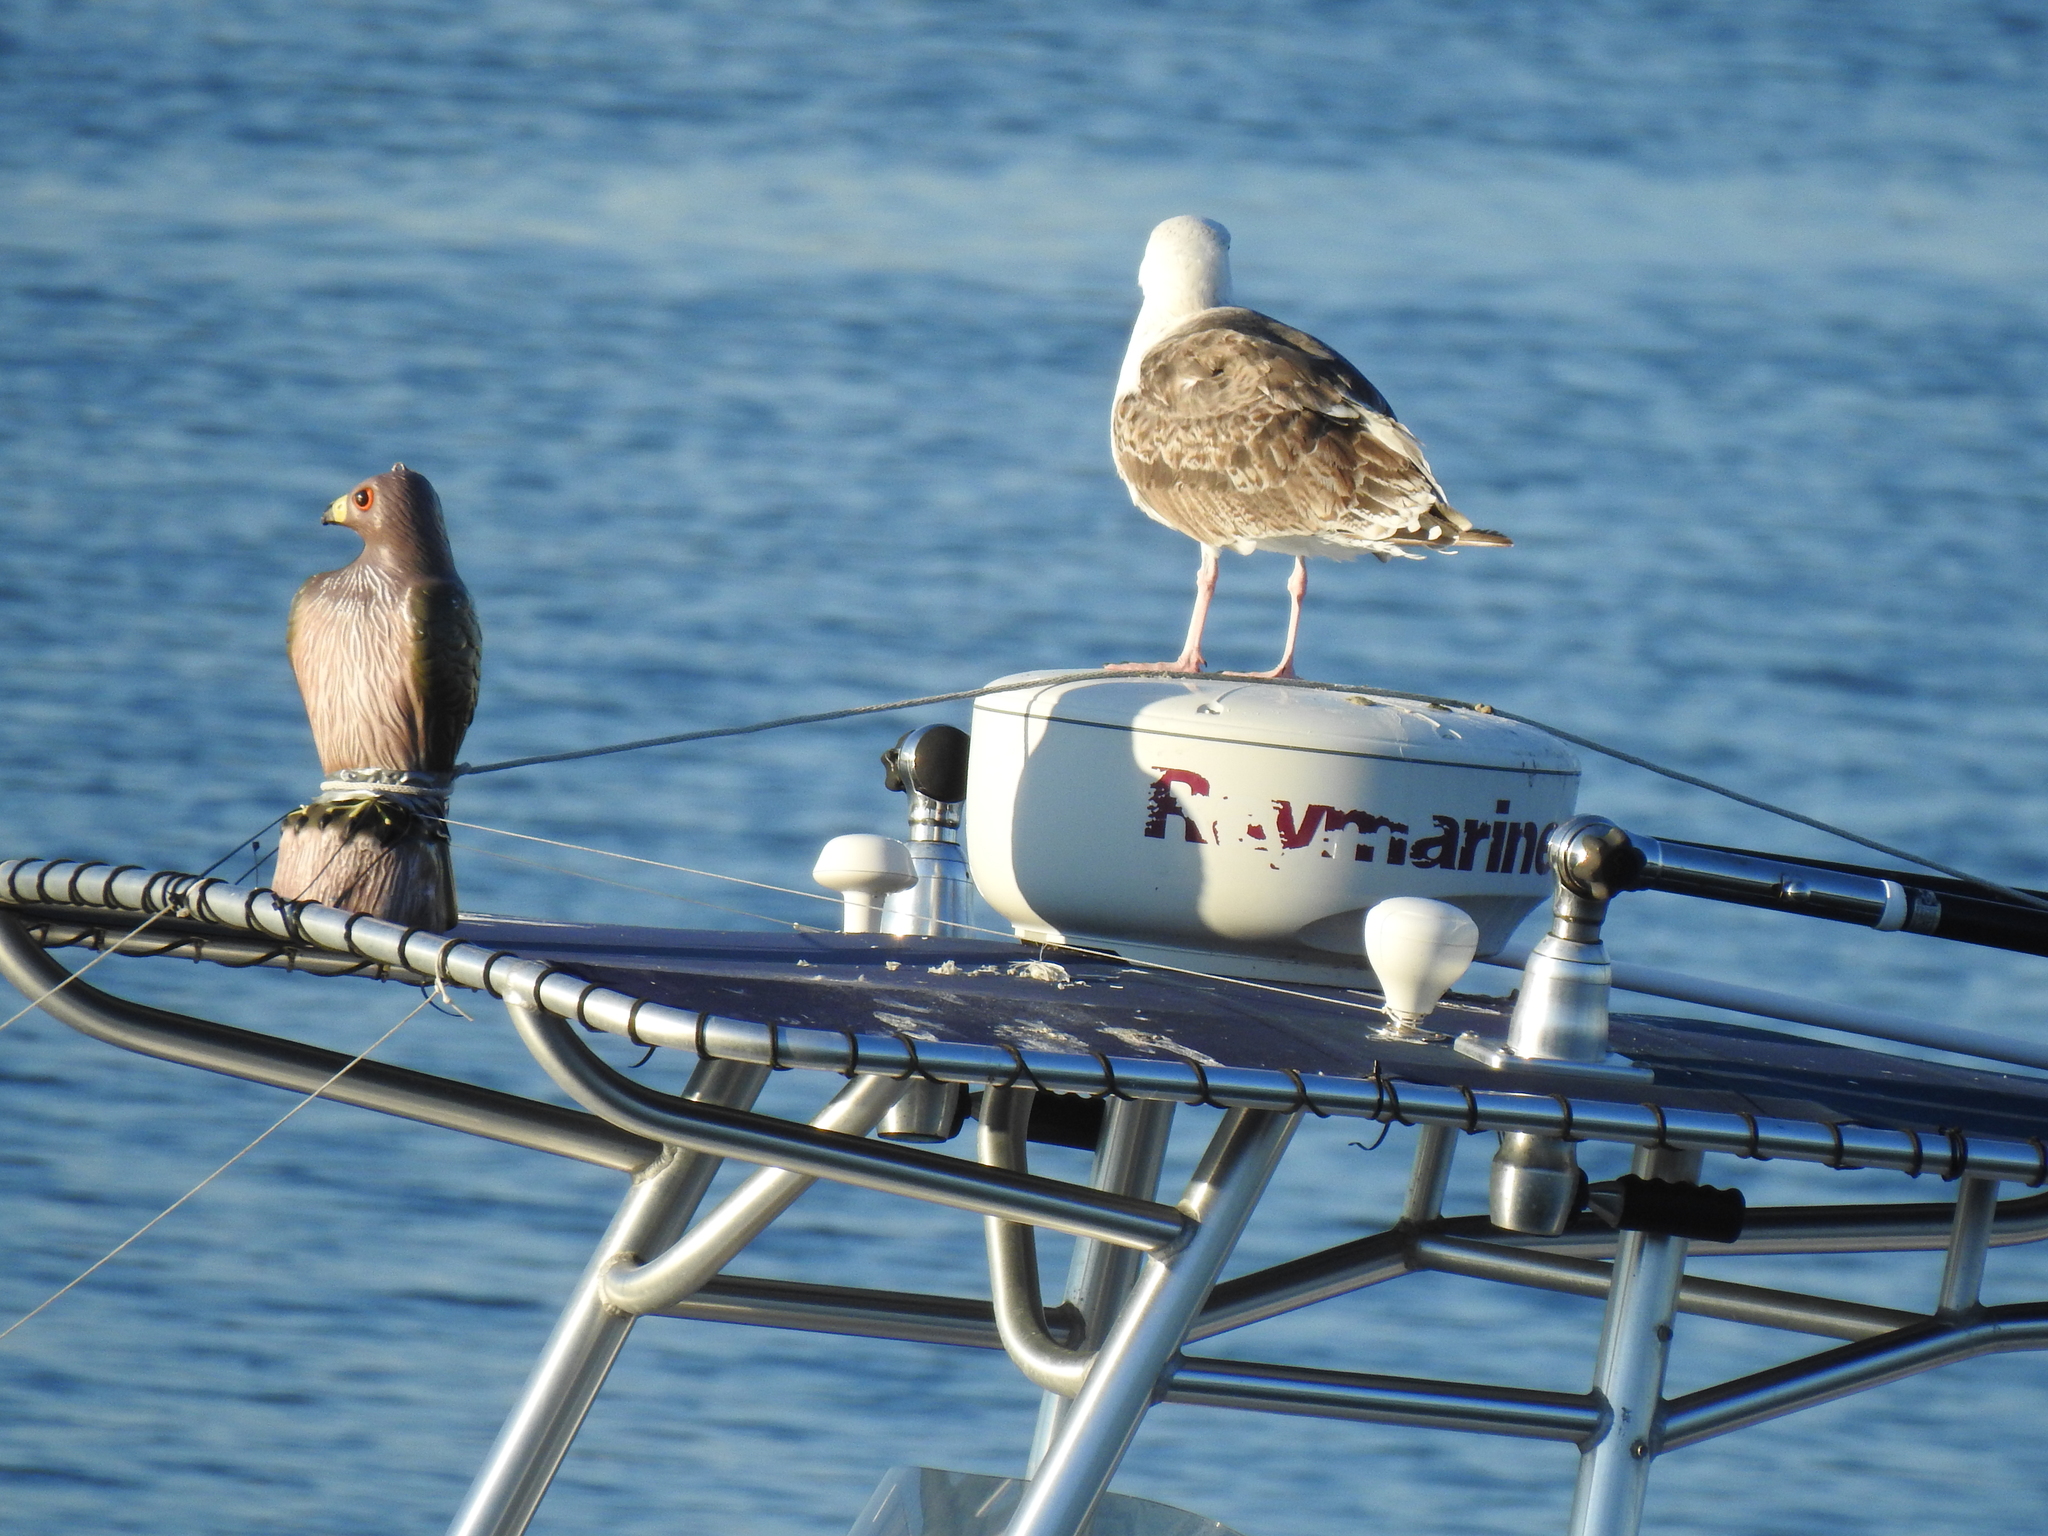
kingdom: Animalia
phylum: Chordata
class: Aves
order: Charadriiformes
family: Laridae
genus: Larus
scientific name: Larus marinus
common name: Great black-backed gull
